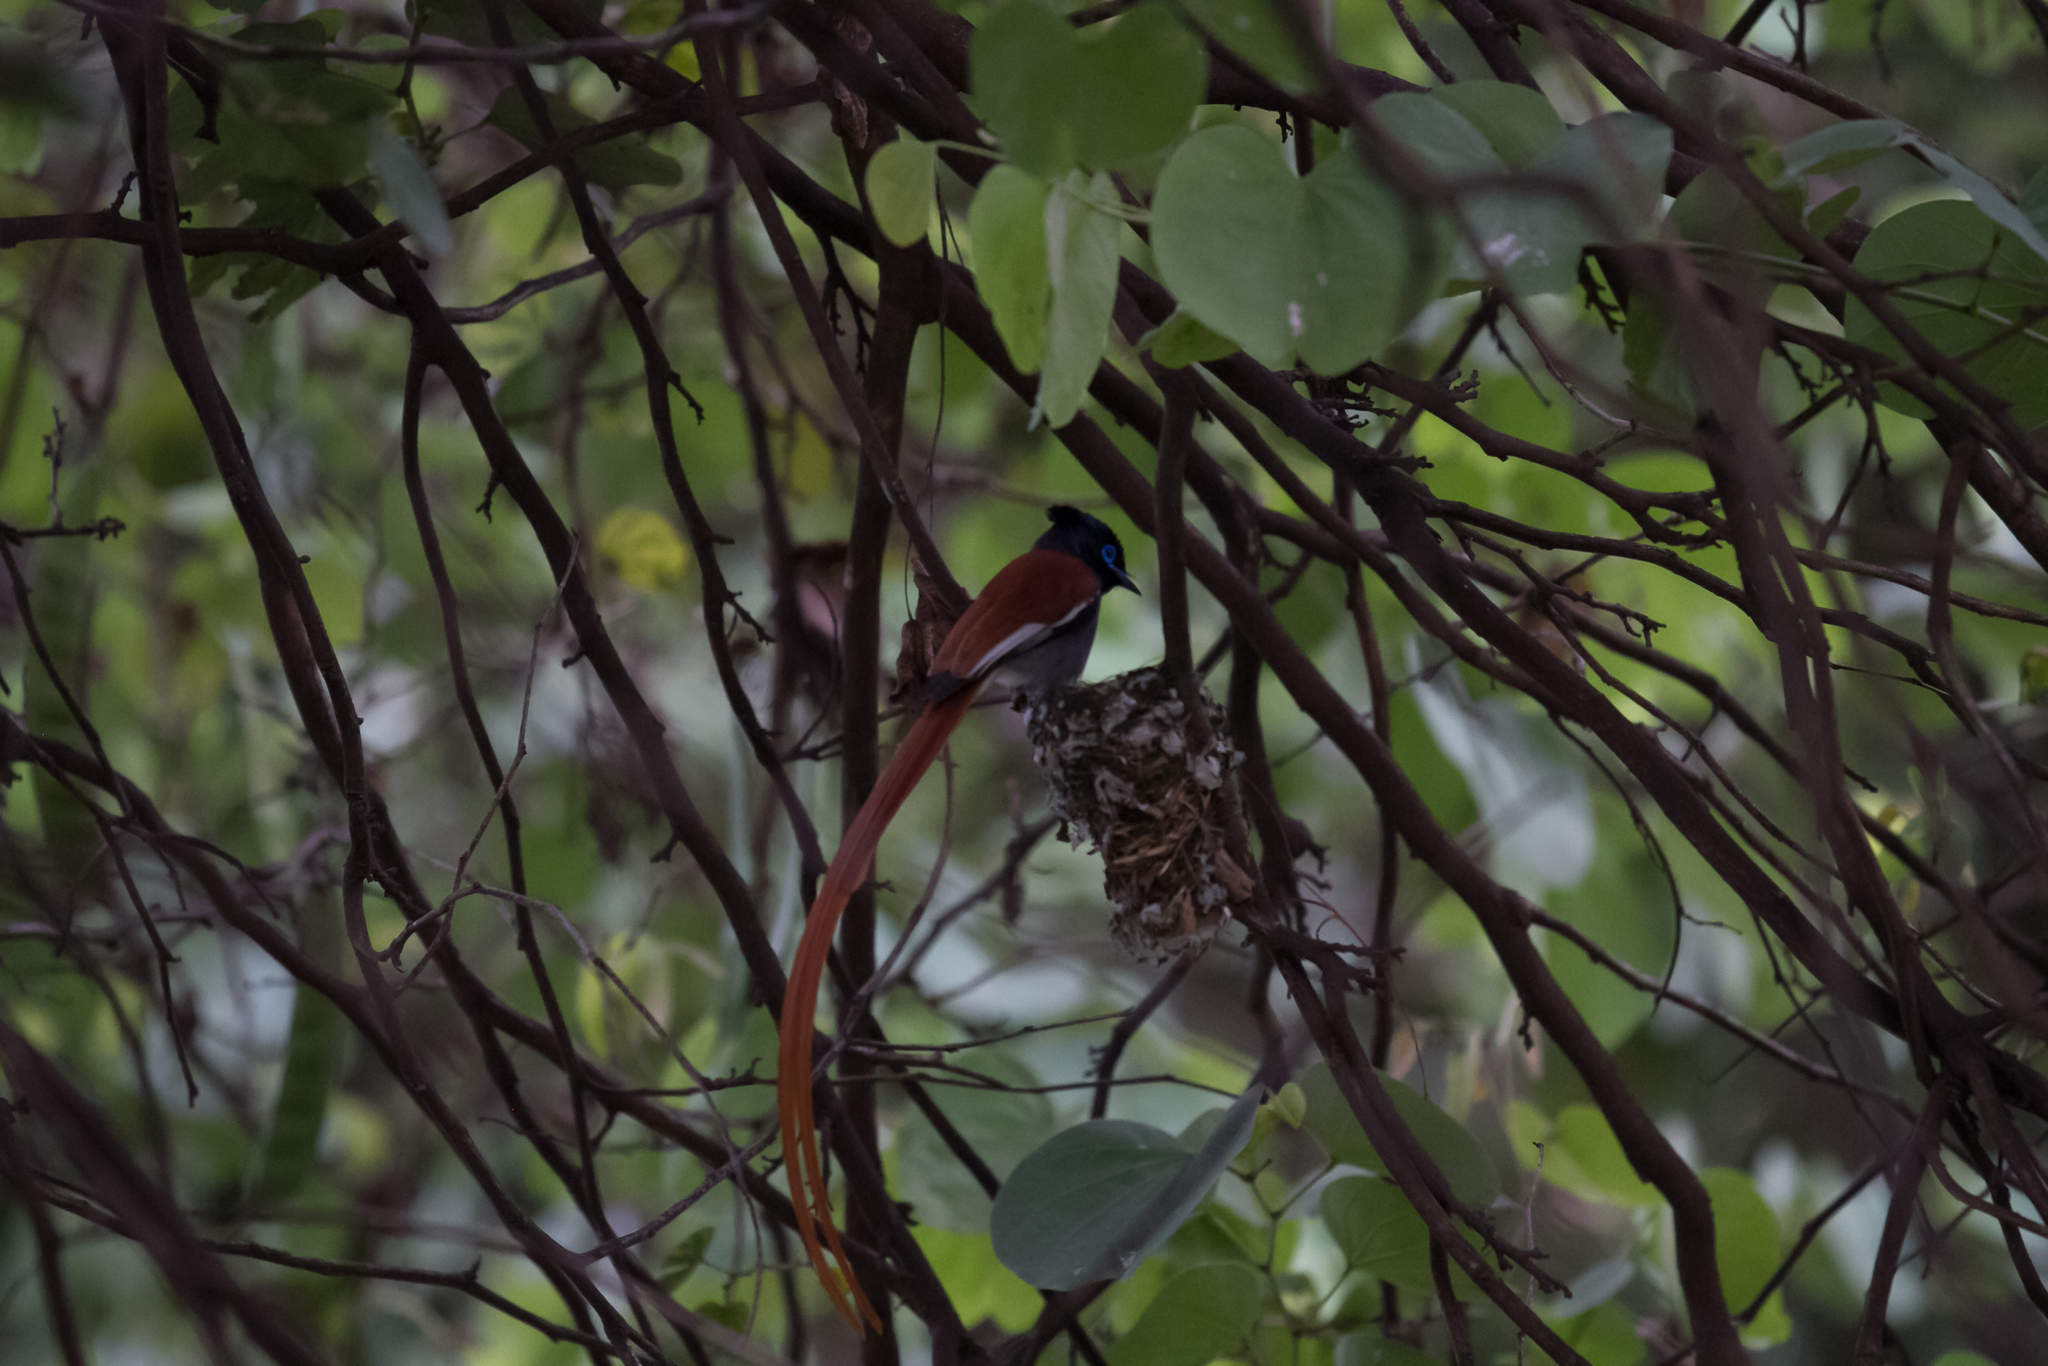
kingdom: Animalia
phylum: Chordata
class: Aves
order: Passeriformes
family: Monarchidae
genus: Terpsiphone
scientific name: Terpsiphone viridis
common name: African paradise flycatcher
